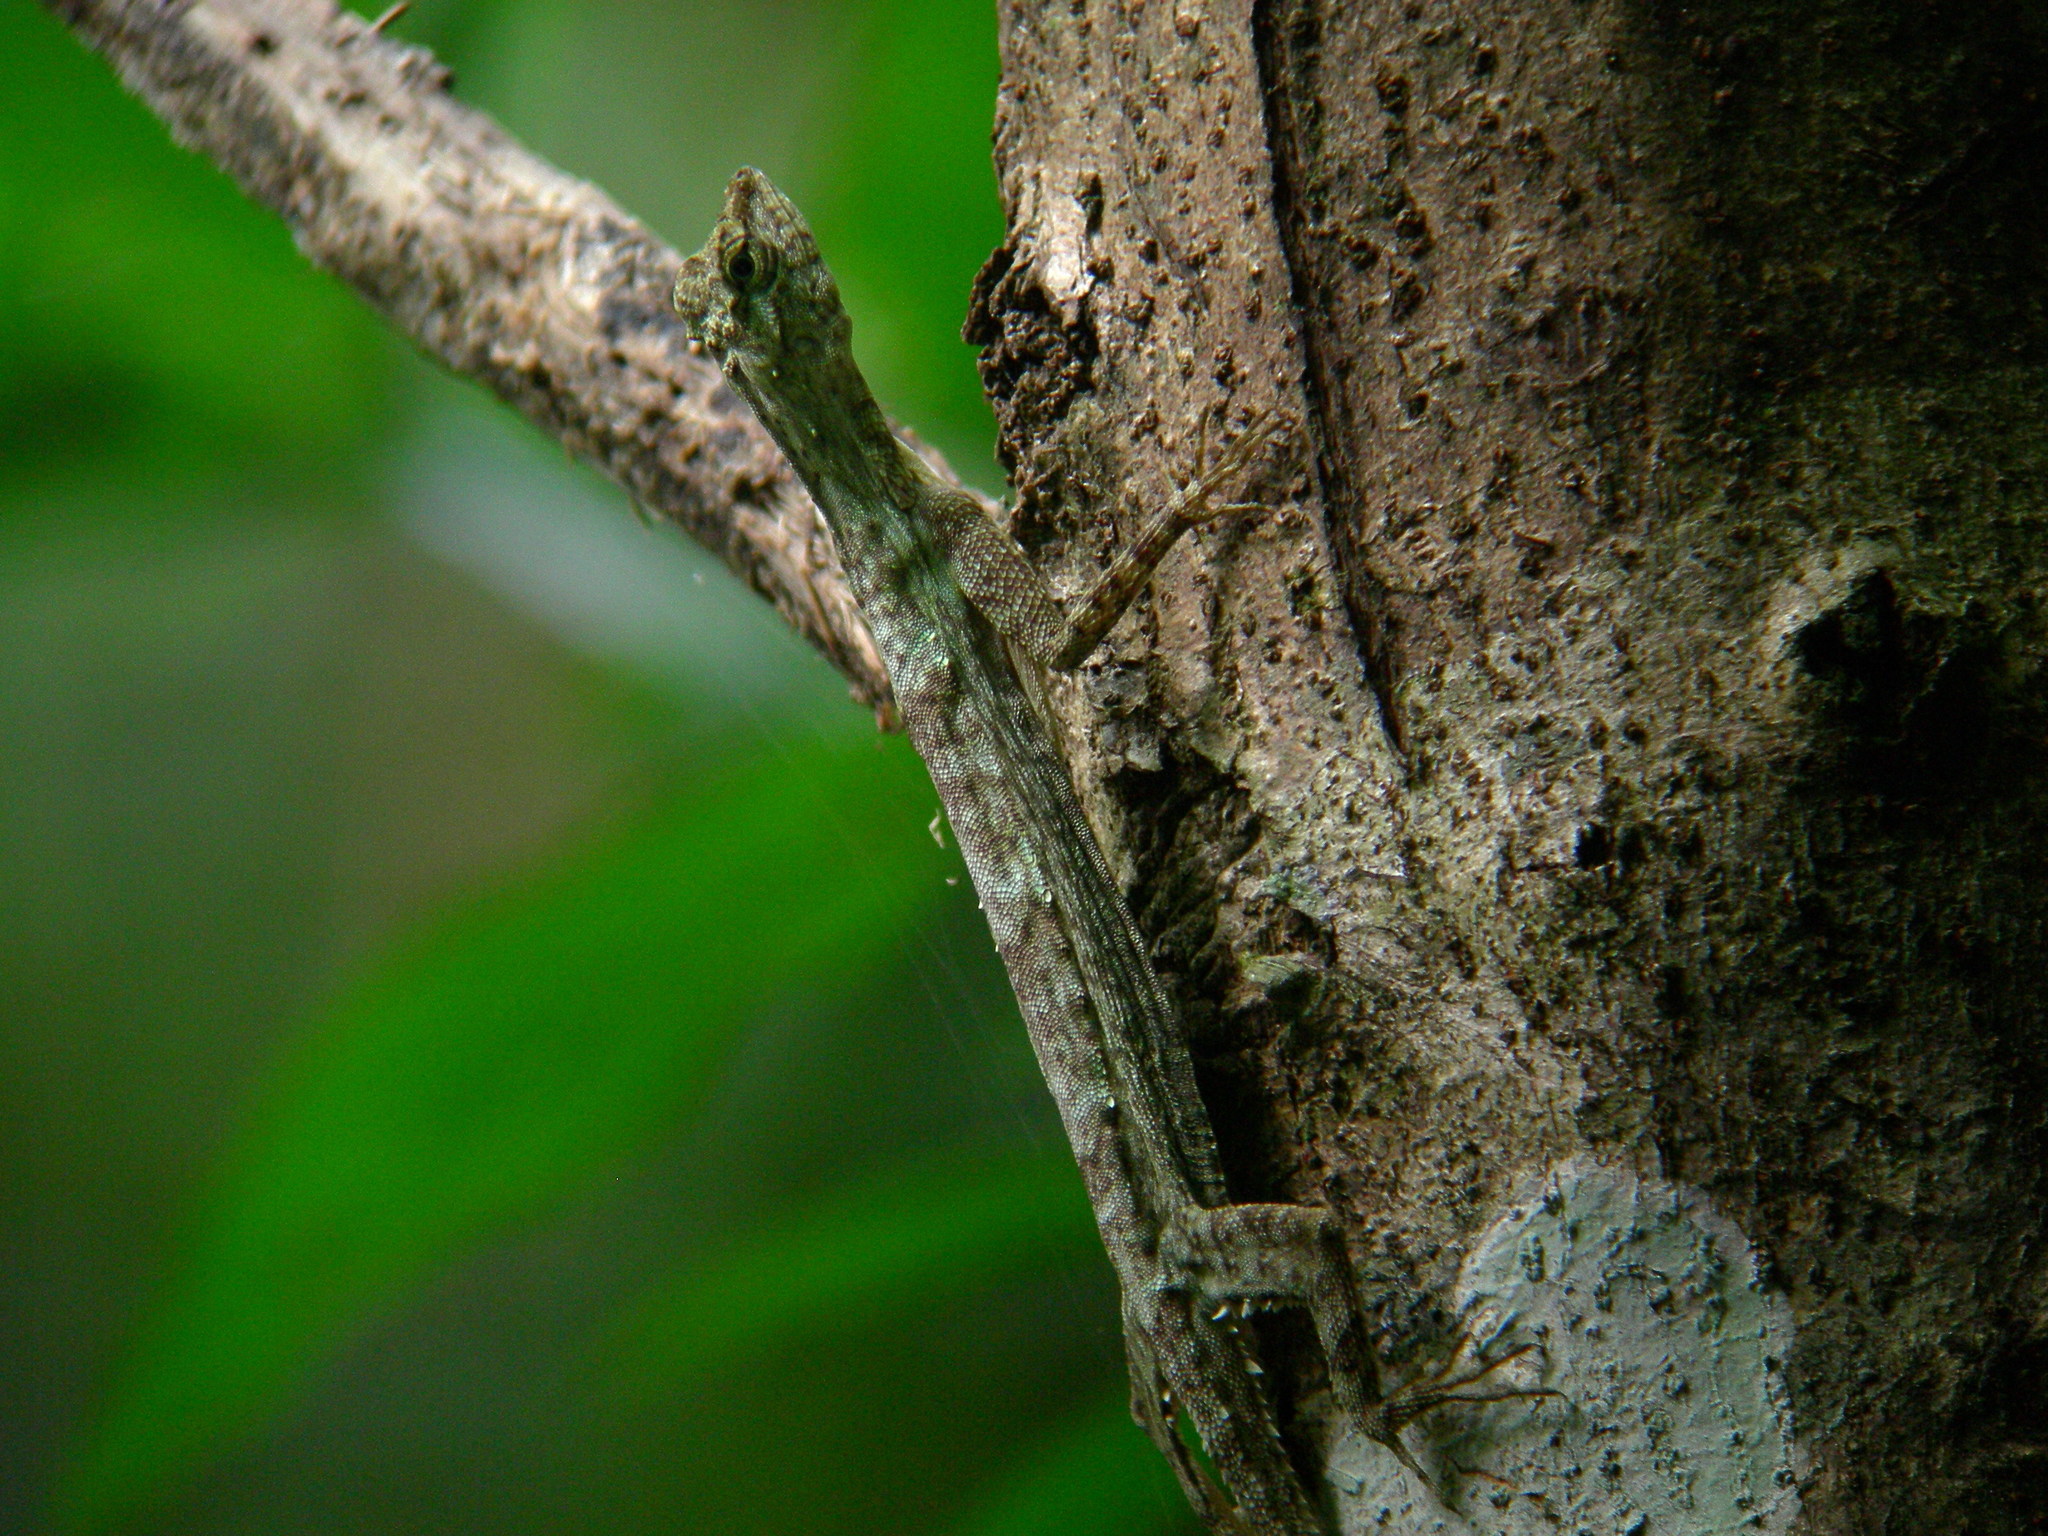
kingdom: Animalia
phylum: Chordata
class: Squamata
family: Agamidae
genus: Draco
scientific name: Draco obscurus
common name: Dusky gliding lizard
